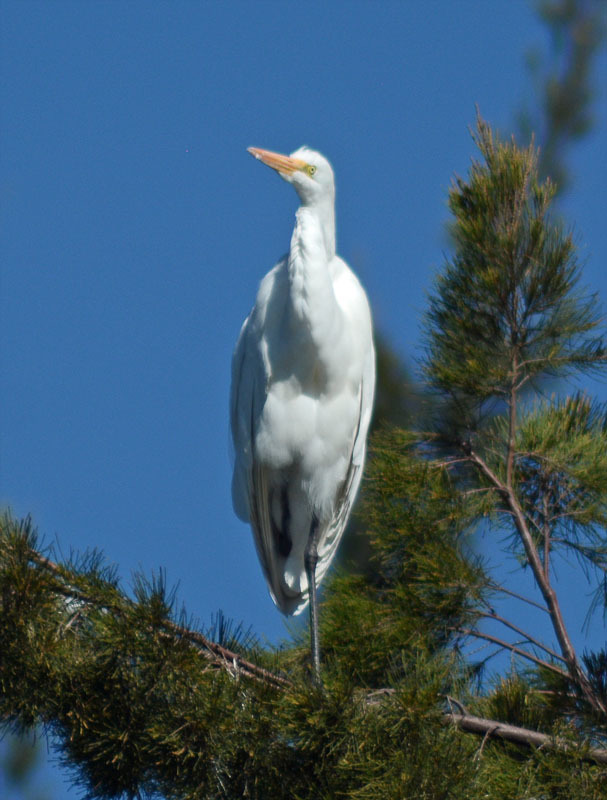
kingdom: Animalia
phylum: Chordata
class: Aves
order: Pelecaniformes
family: Ardeidae
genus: Ardea
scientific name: Ardea alba
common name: Great egret
